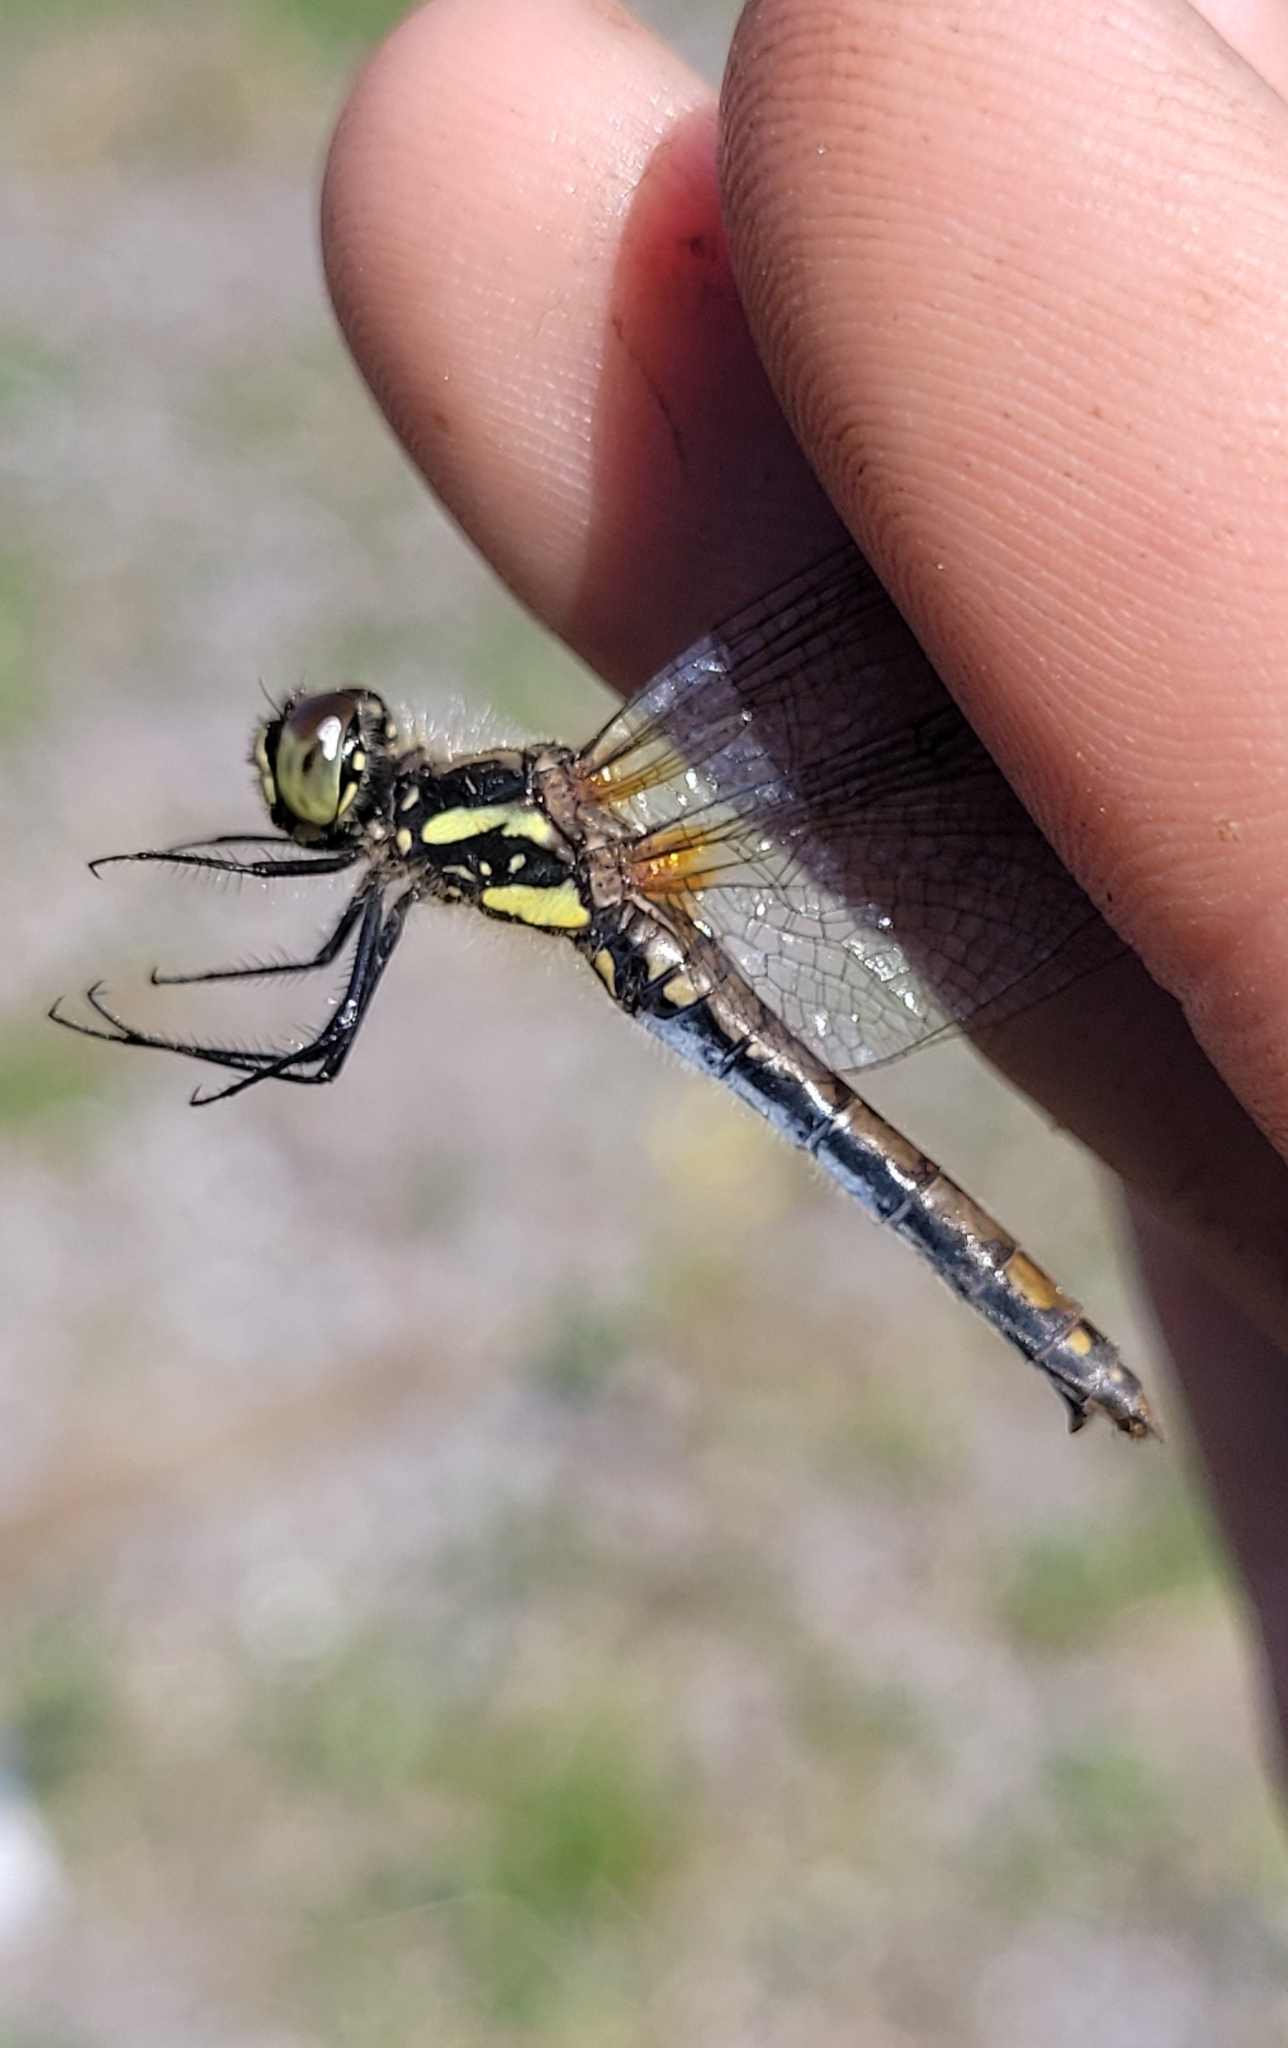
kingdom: Animalia
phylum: Arthropoda
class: Insecta
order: Odonata
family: Libellulidae
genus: Sympetrum
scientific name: Sympetrum danae
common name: Black darter
